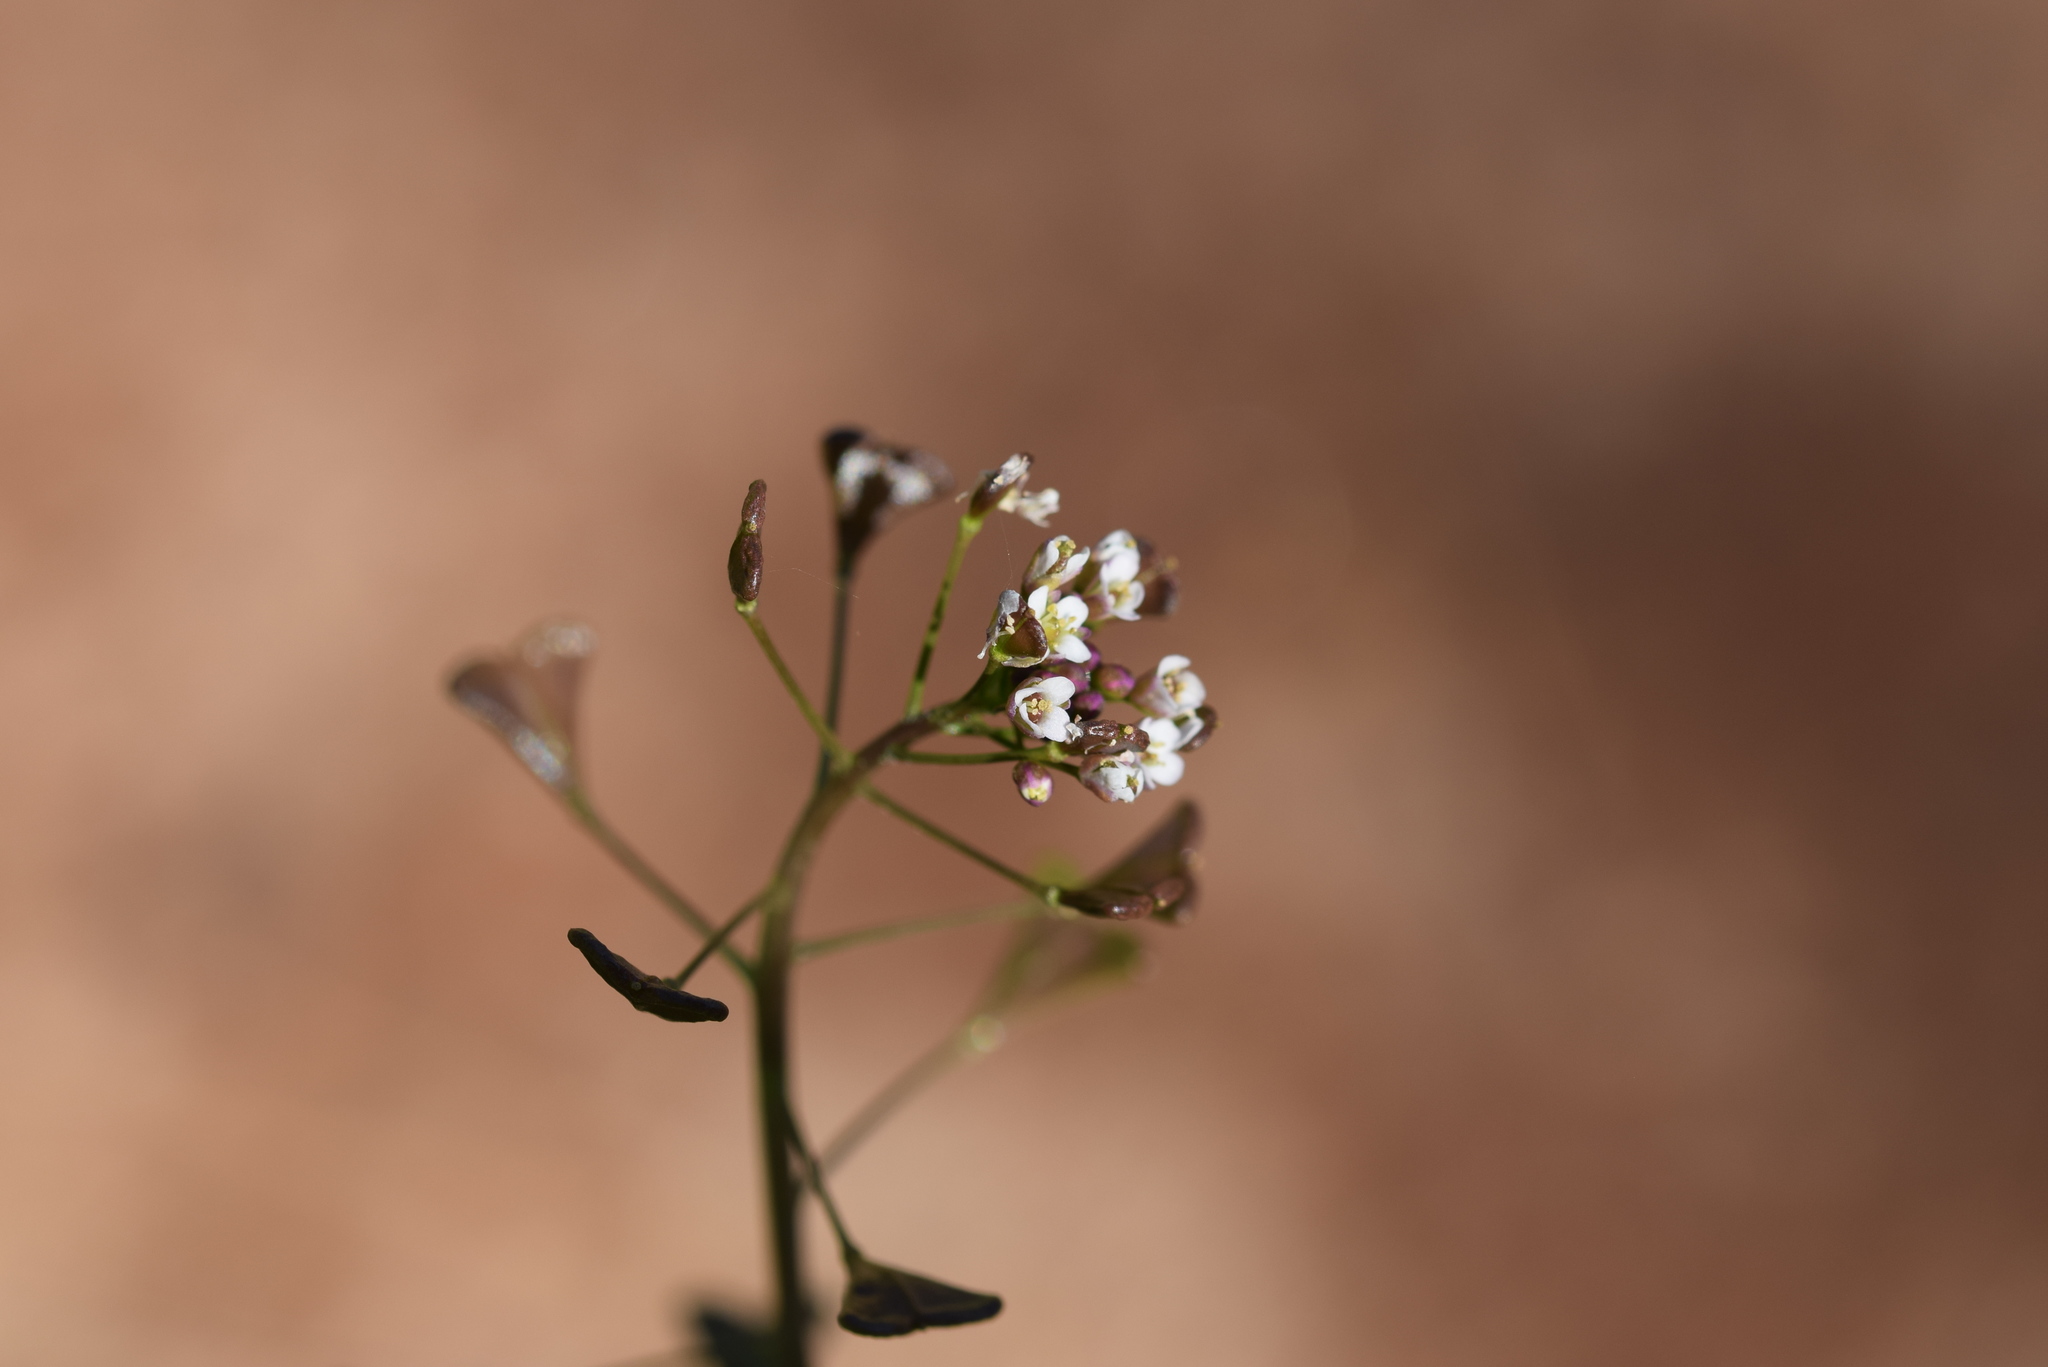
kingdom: Plantae
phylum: Tracheophyta
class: Magnoliopsida
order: Brassicales
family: Brassicaceae
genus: Capsella
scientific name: Capsella bursa-pastoris
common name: Shepherd's purse
